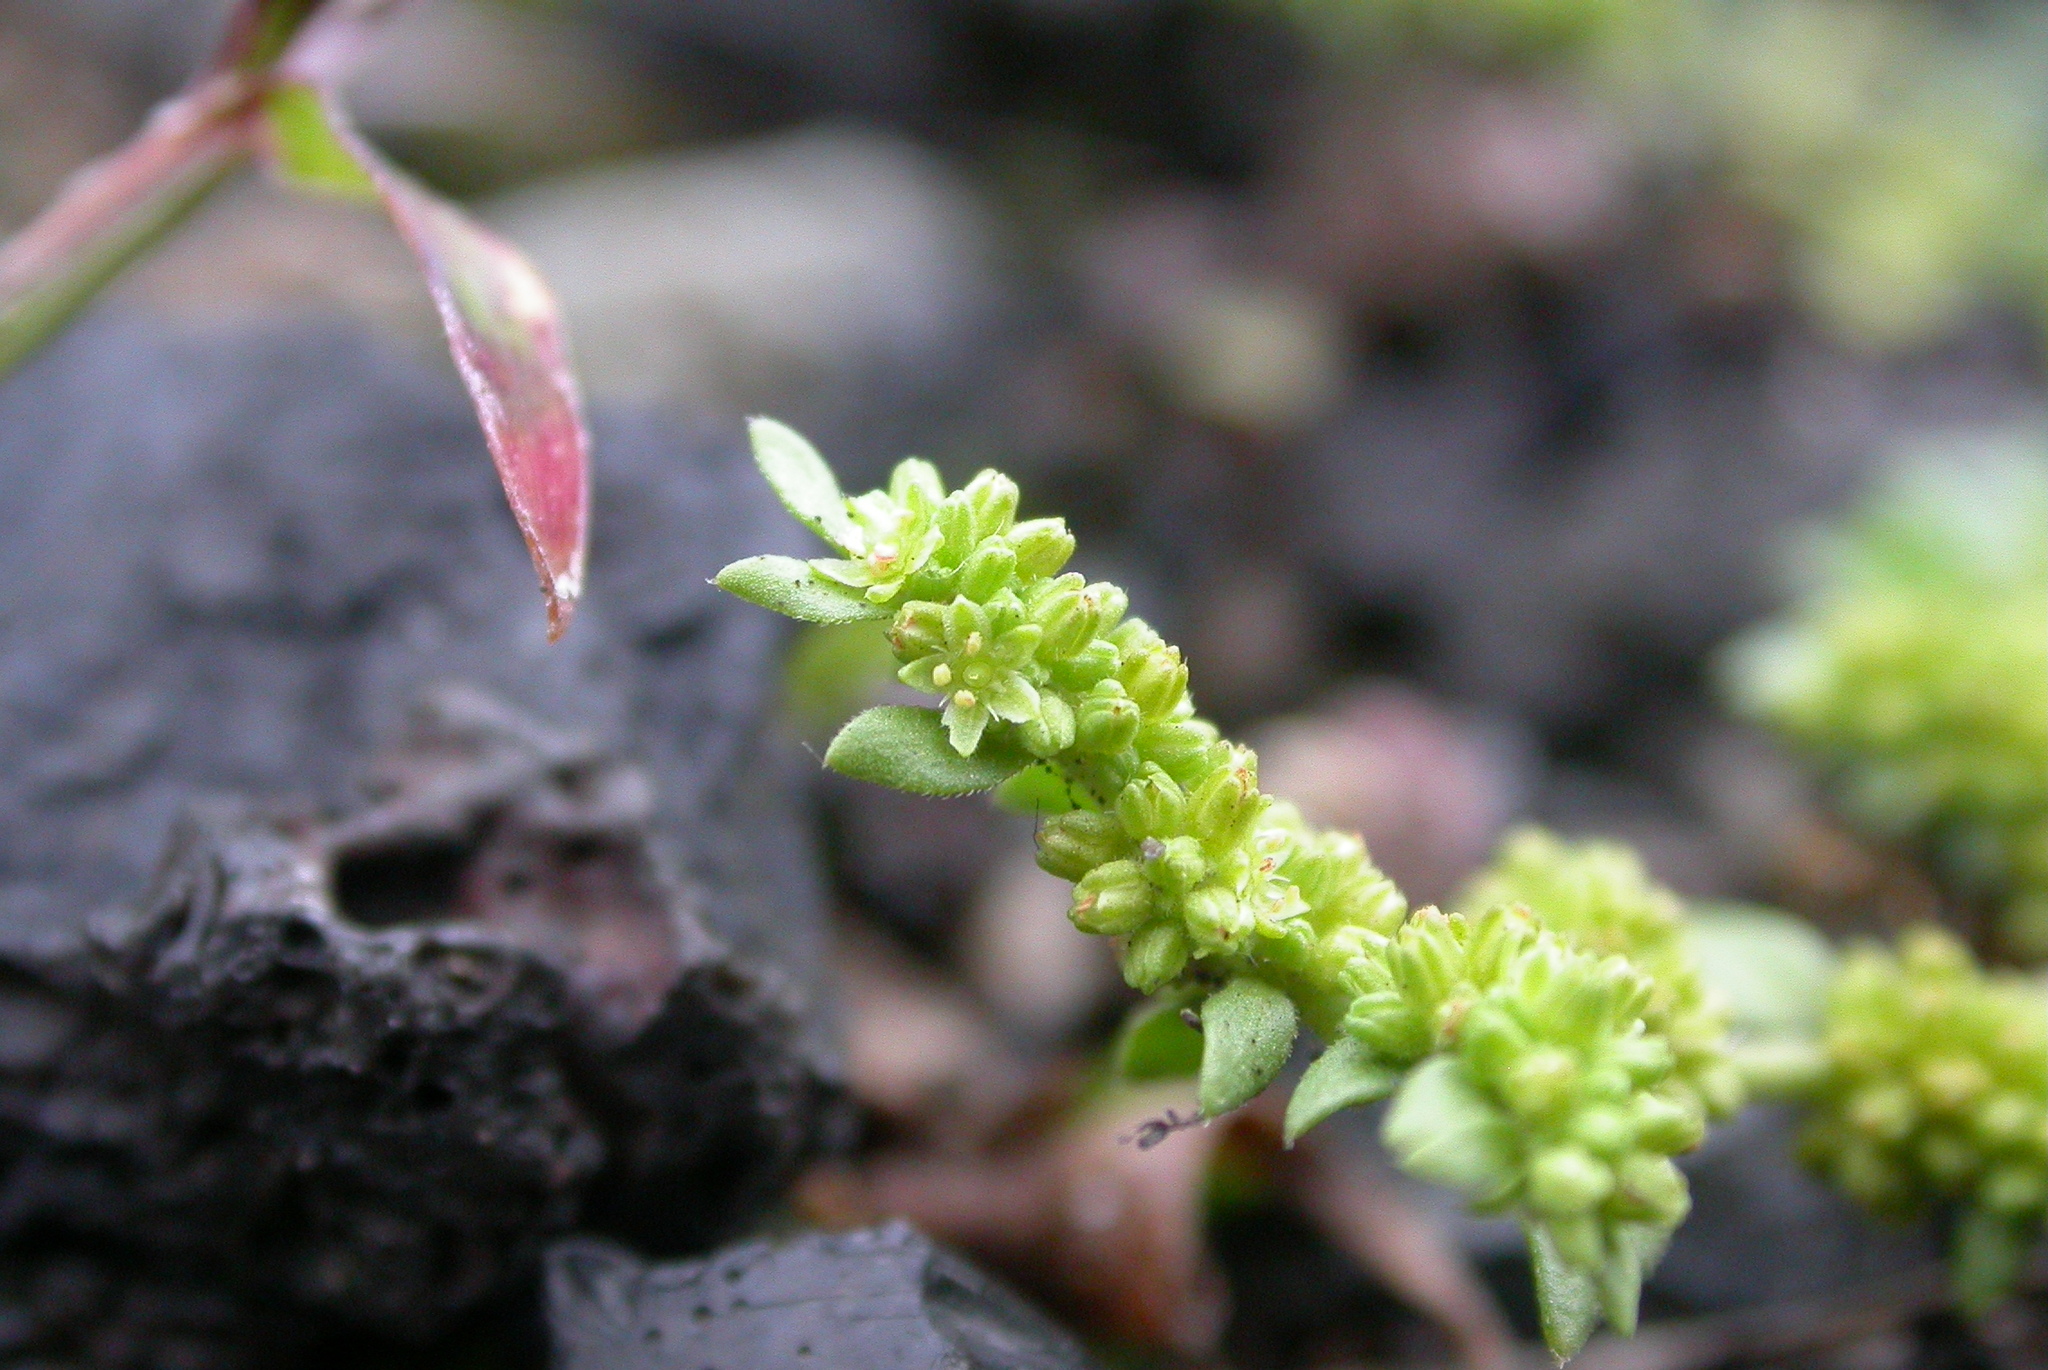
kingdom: Plantae
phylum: Tracheophyta
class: Magnoliopsida
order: Caryophyllales
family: Caryophyllaceae
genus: Herniaria
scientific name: Herniaria glabra
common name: Smooth rupturewort
